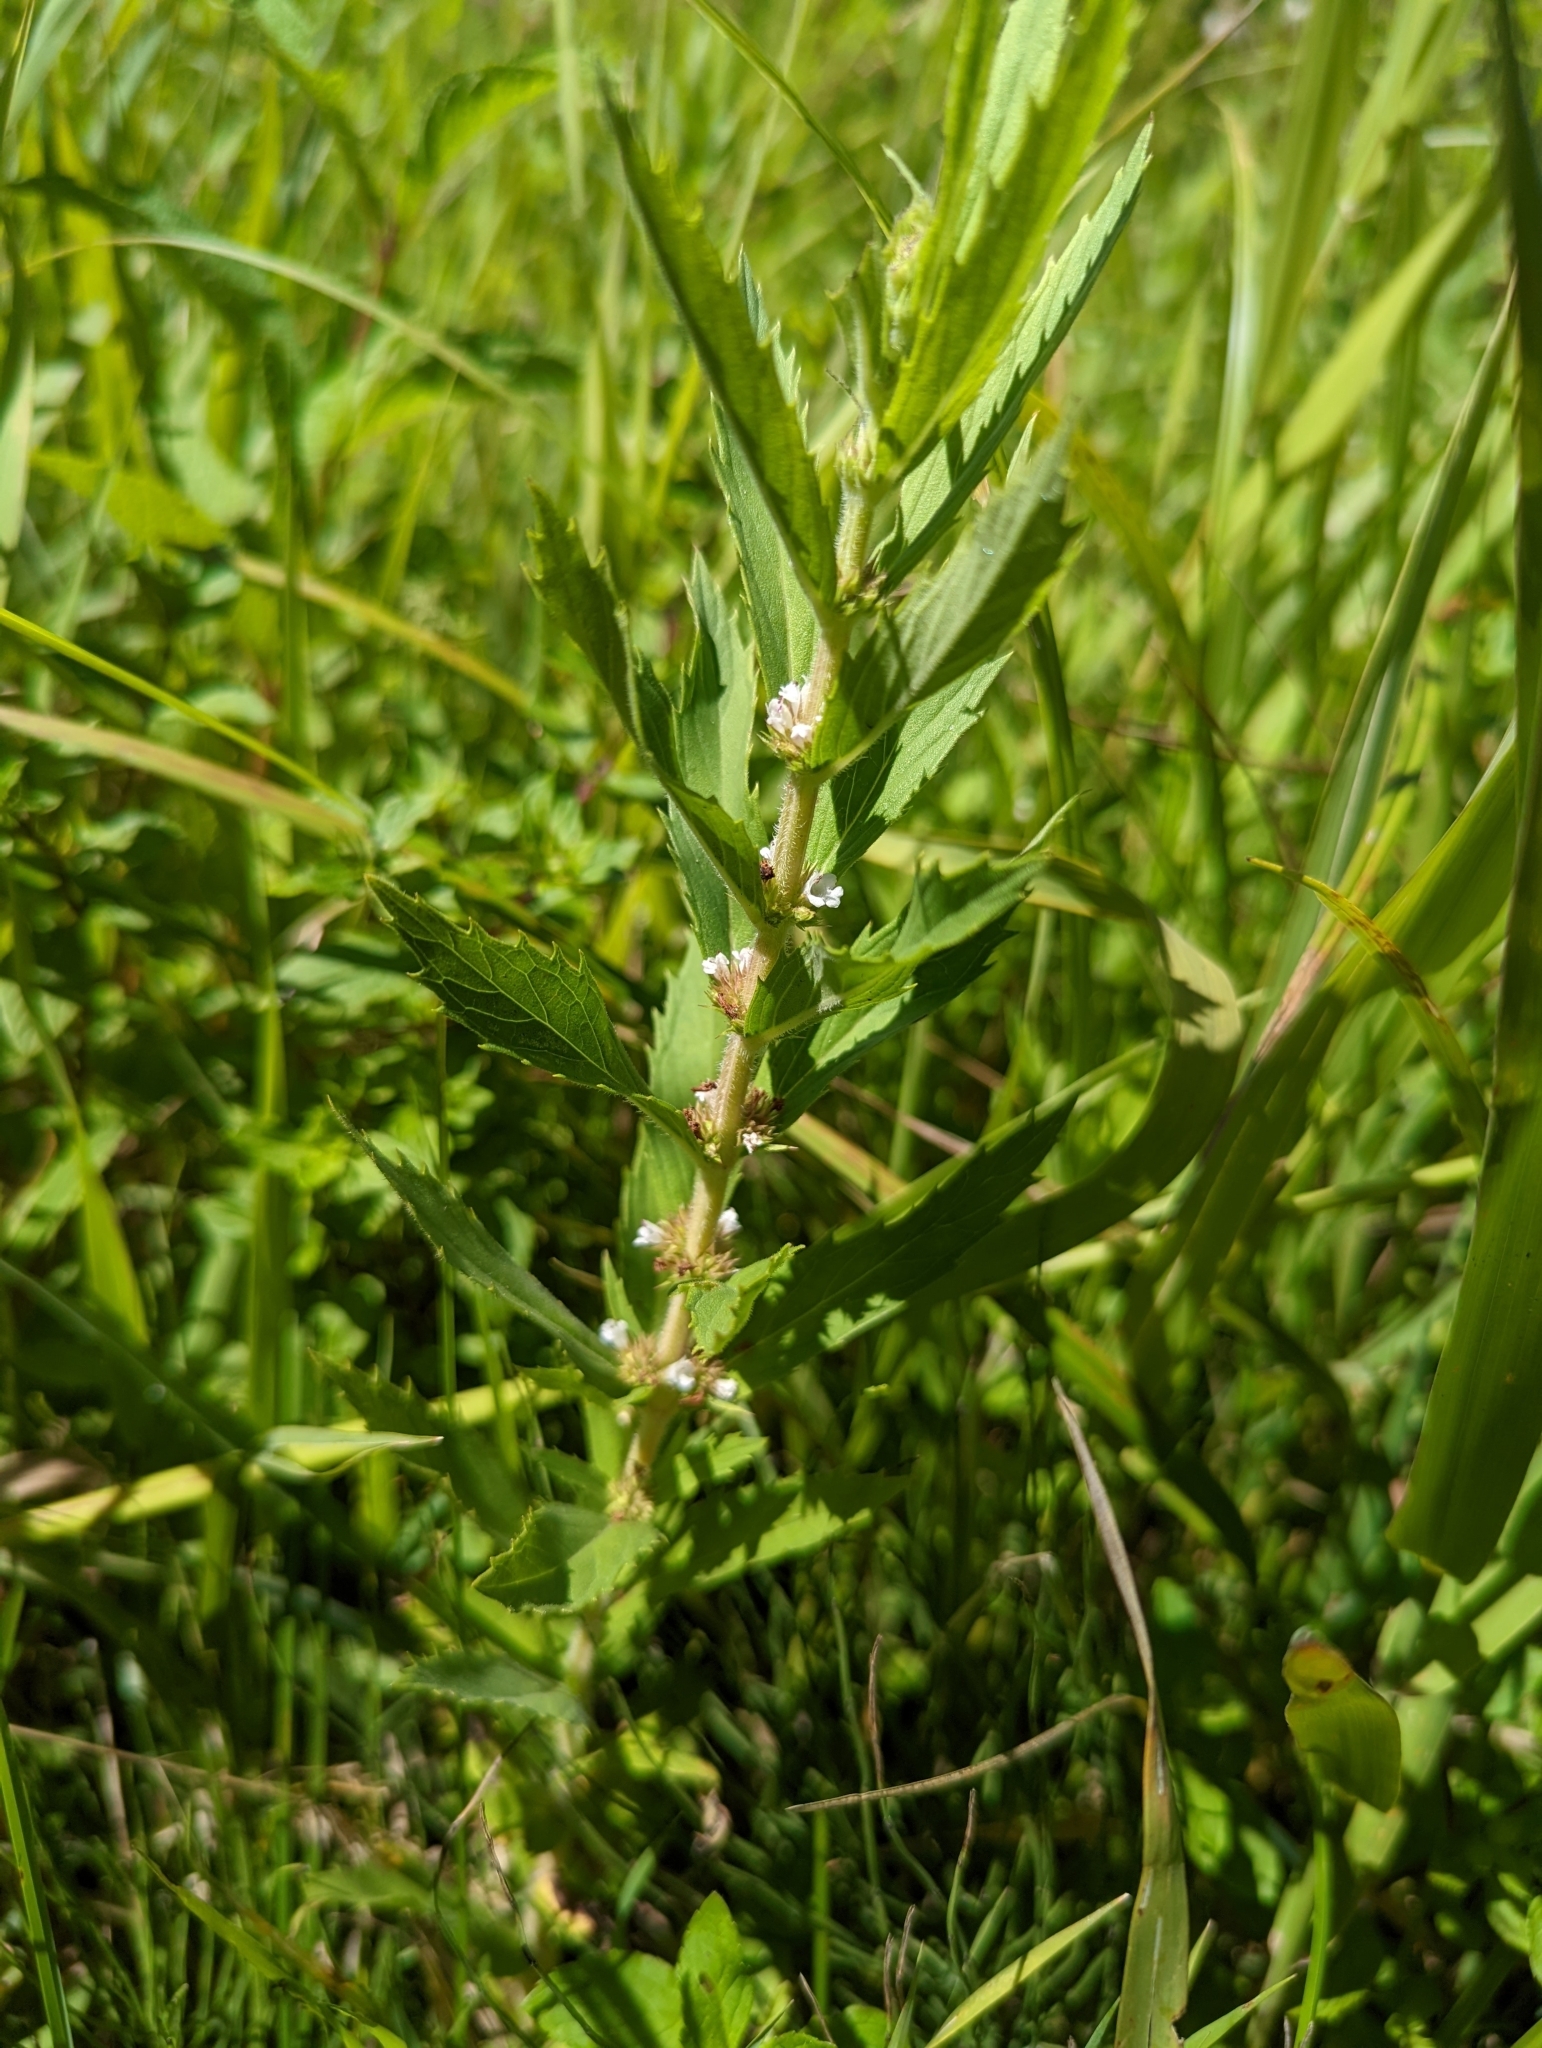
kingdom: Plantae
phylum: Tracheophyta
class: Magnoliopsida
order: Lamiales
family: Lamiaceae
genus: Lycopus
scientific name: Lycopus asper
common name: Rough water-horehound
